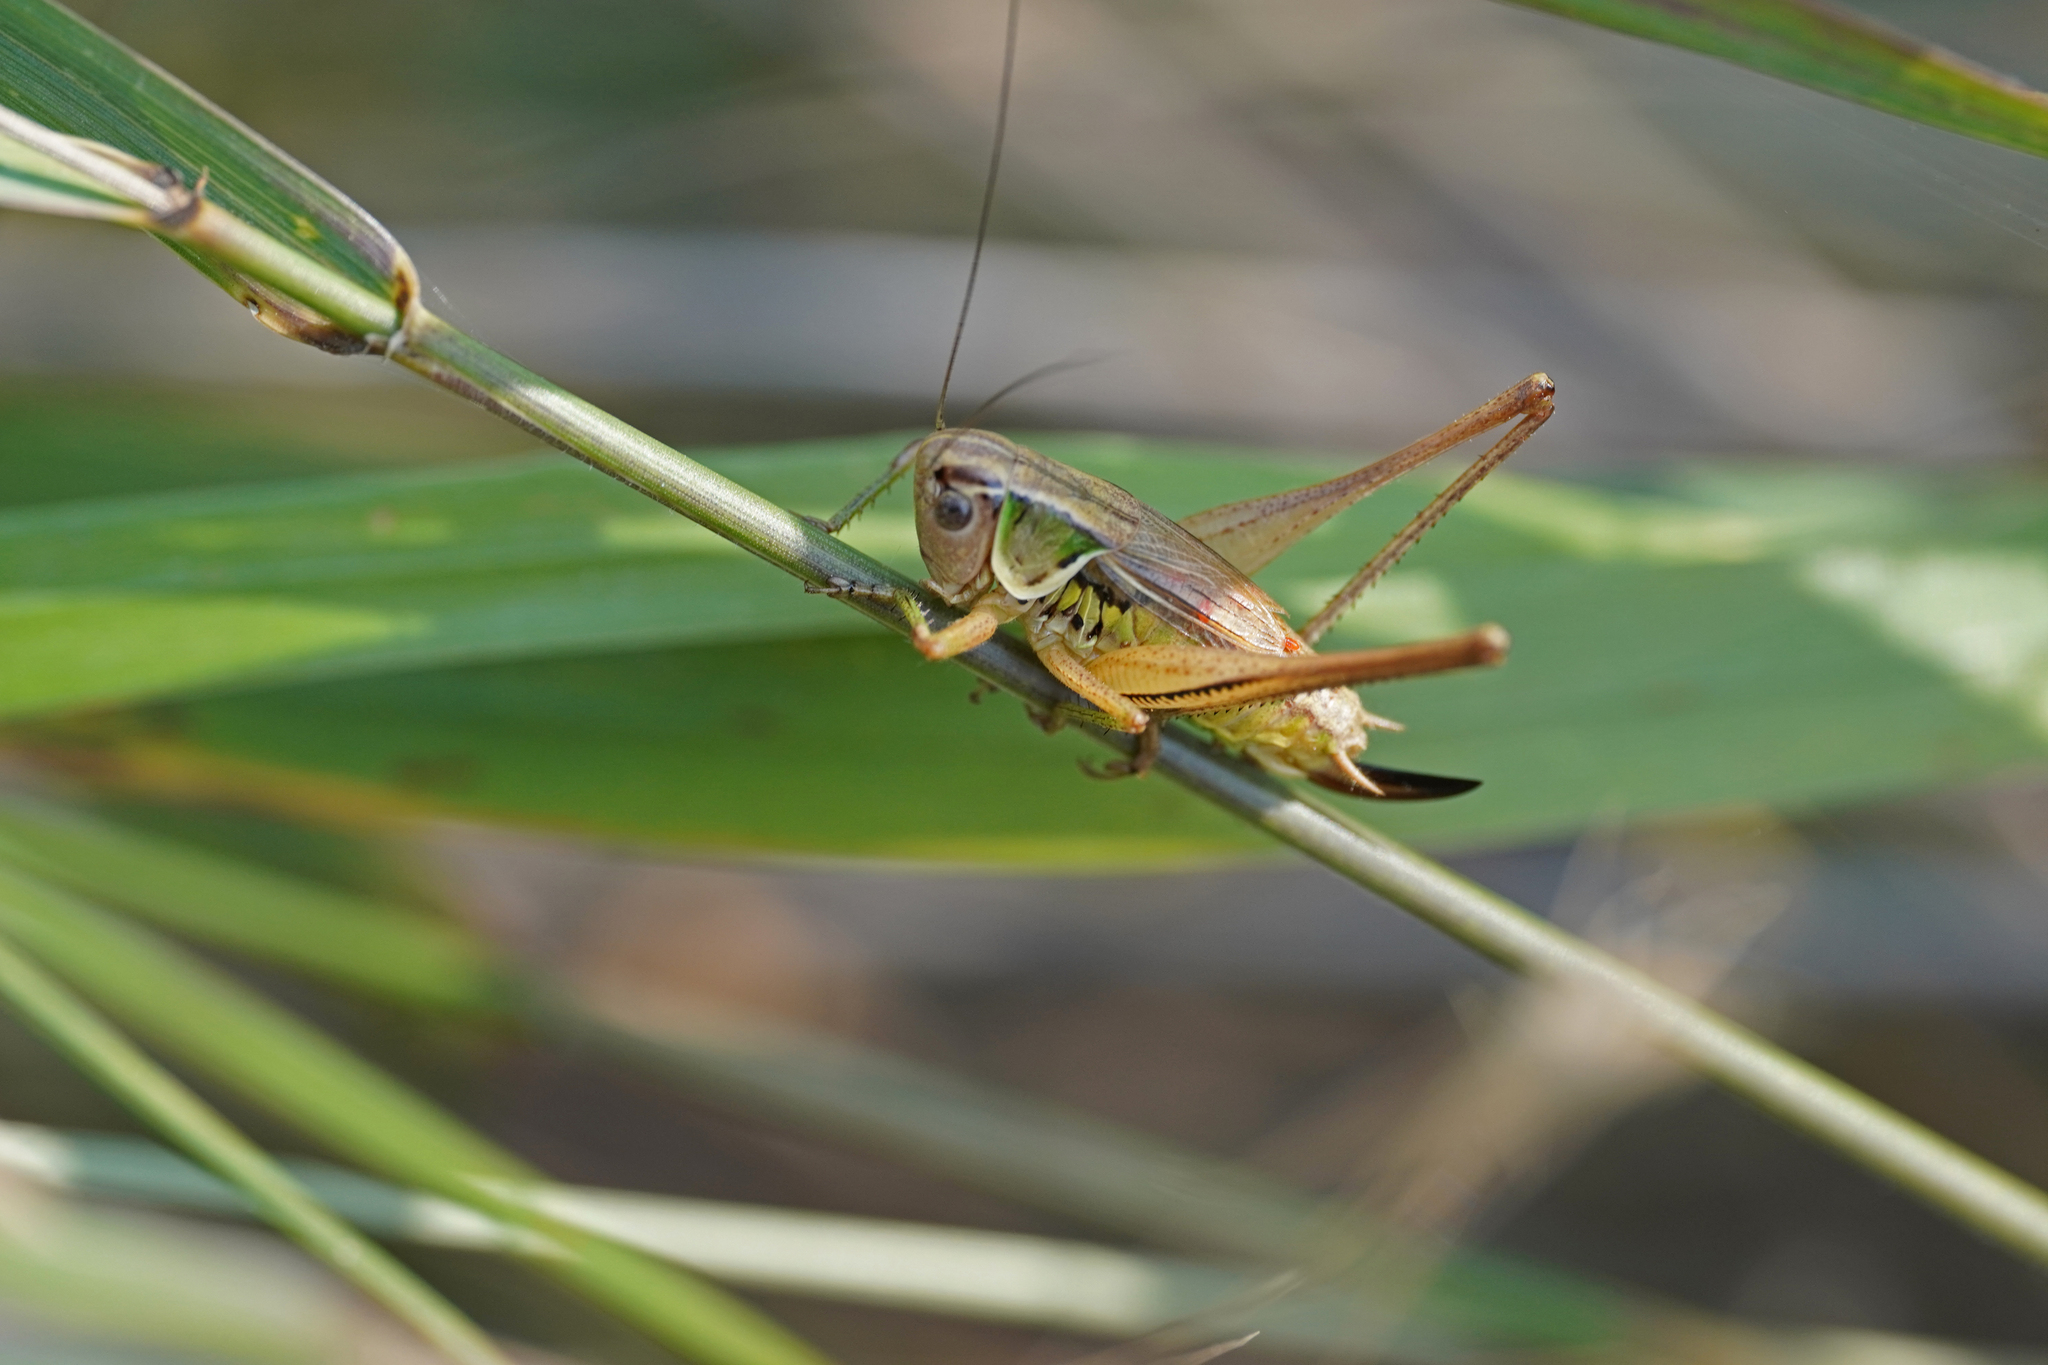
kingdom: Animalia
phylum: Arthropoda
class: Insecta
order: Orthoptera
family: Tettigoniidae
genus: Roeseliana
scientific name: Roeseliana azami
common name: French meadow bush-cricket
